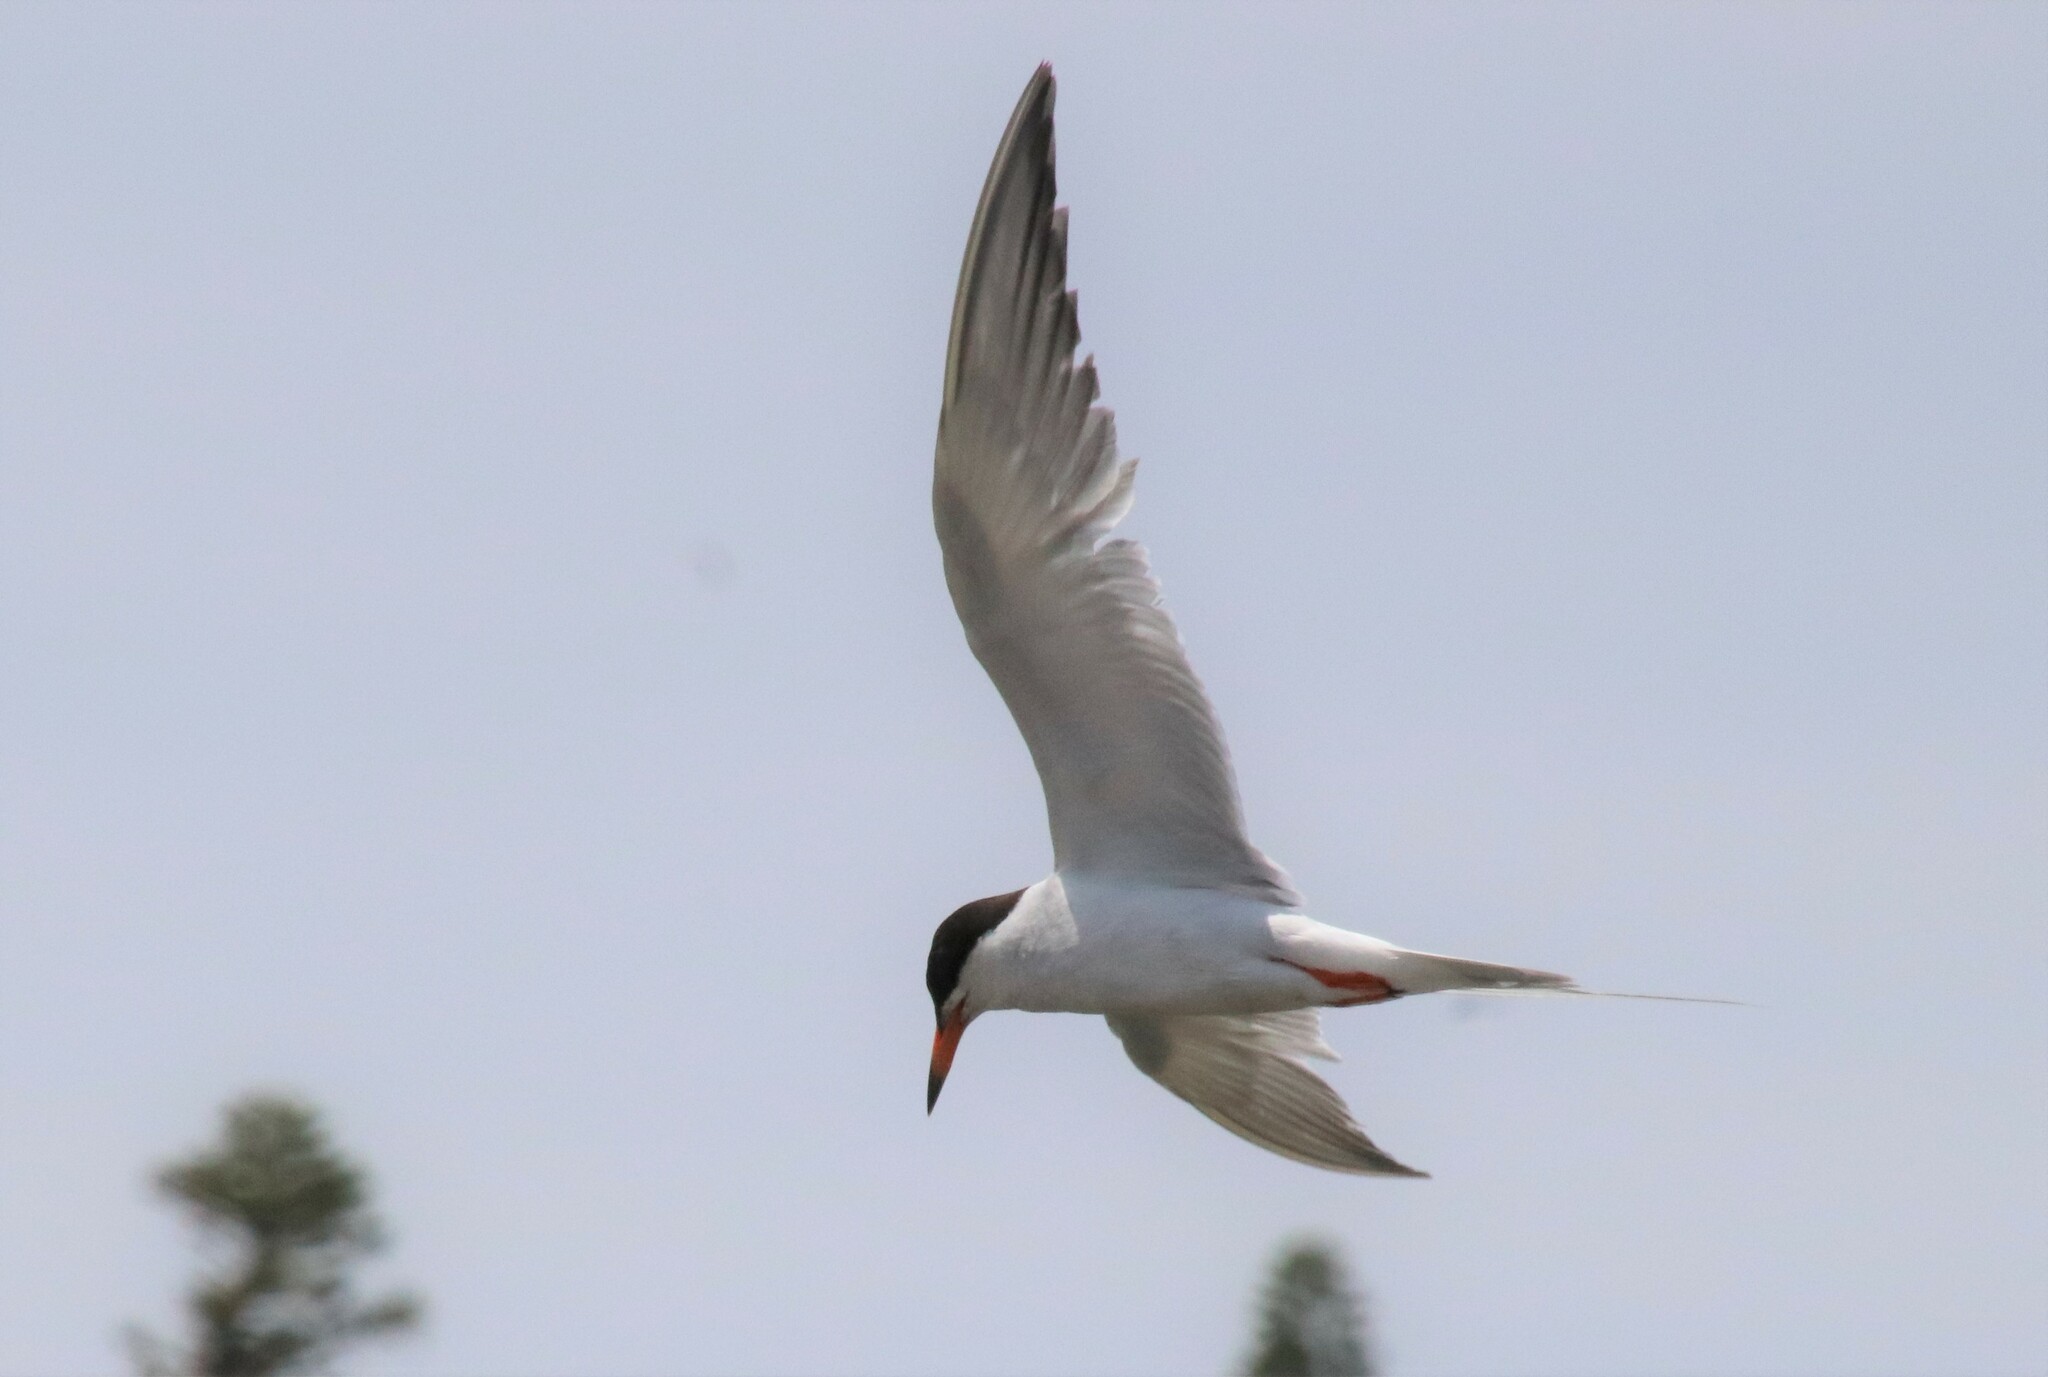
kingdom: Animalia
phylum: Chordata
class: Aves
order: Charadriiformes
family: Laridae
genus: Sterna
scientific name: Sterna forsteri
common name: Forster's tern
